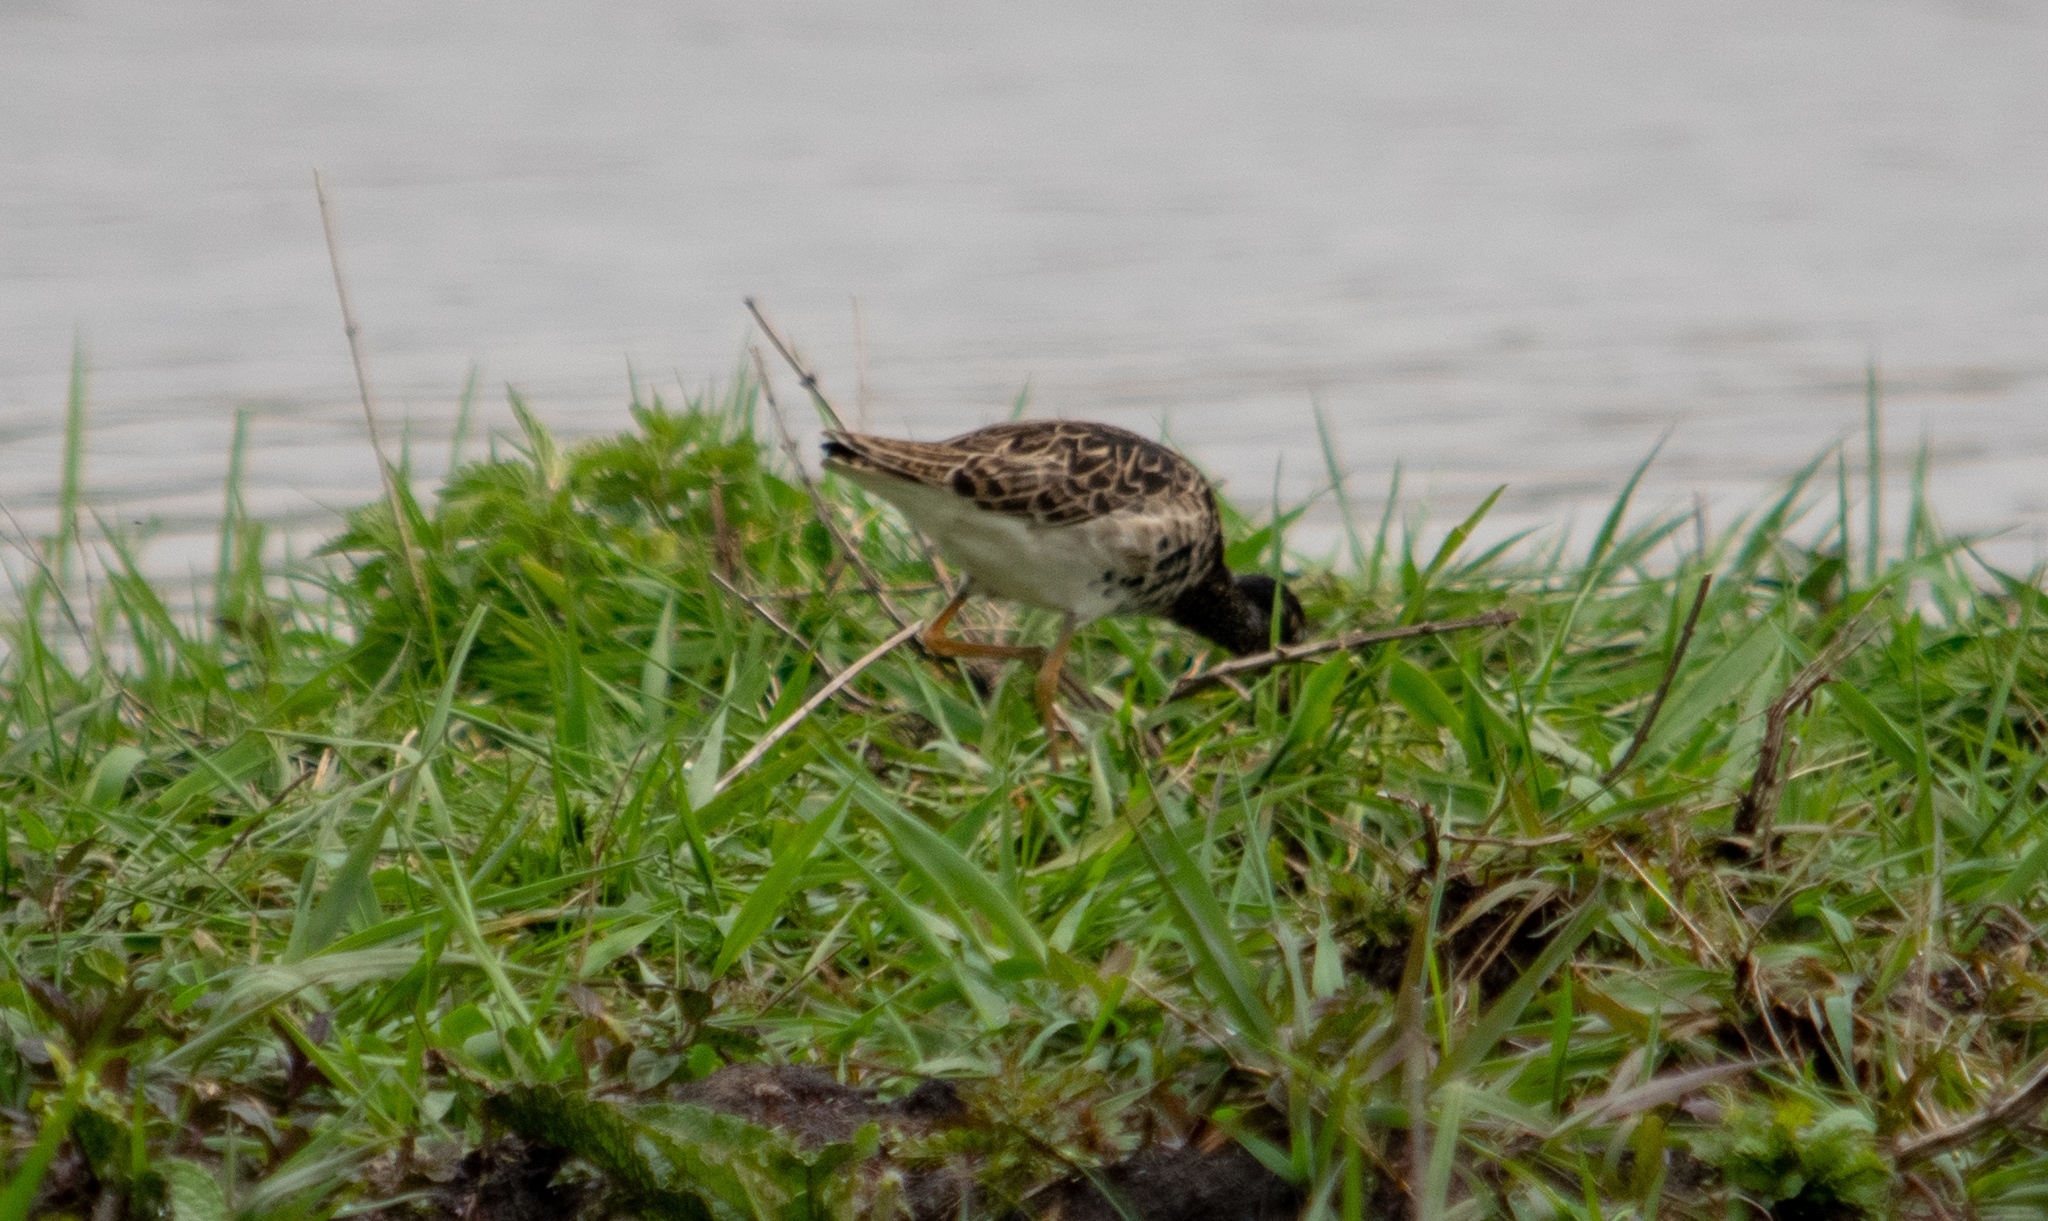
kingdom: Animalia
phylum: Chordata
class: Aves
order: Charadriiformes
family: Scolopacidae
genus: Calidris
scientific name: Calidris pugnax
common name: Ruff
